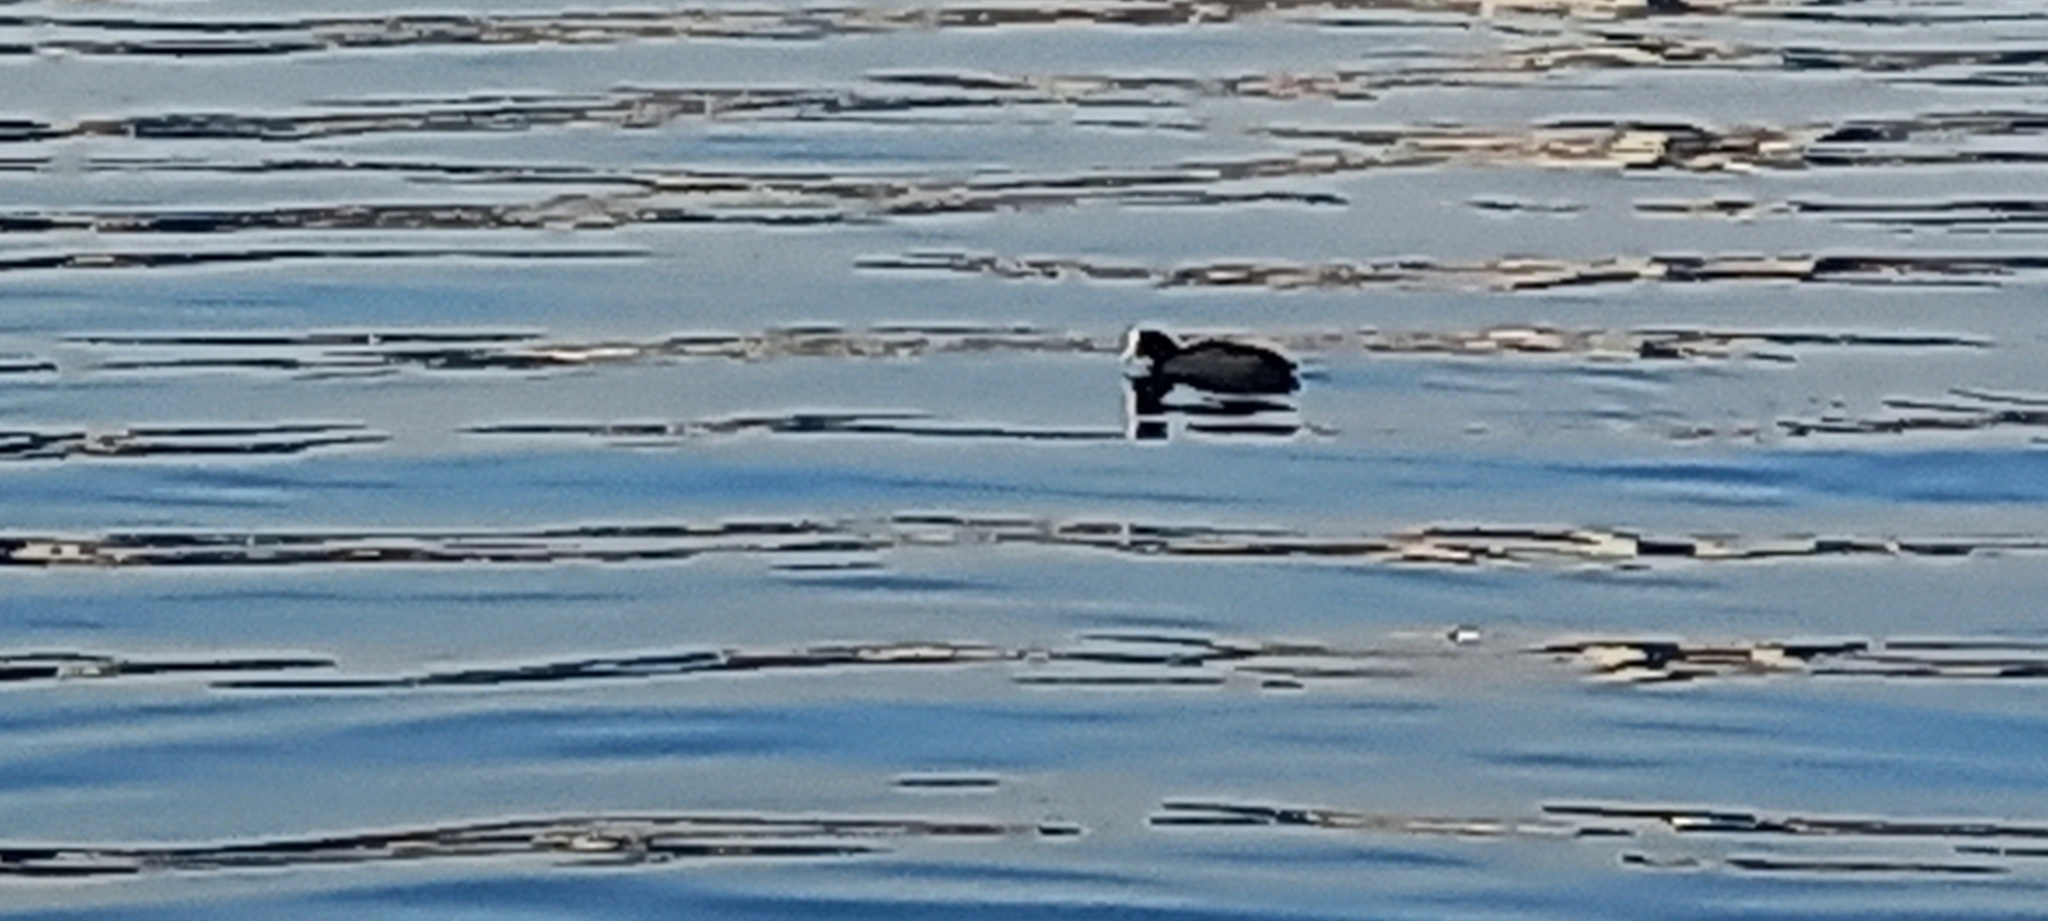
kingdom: Animalia
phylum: Chordata
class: Aves
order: Gruiformes
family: Rallidae
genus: Fulica
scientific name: Fulica atra
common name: Eurasian coot
